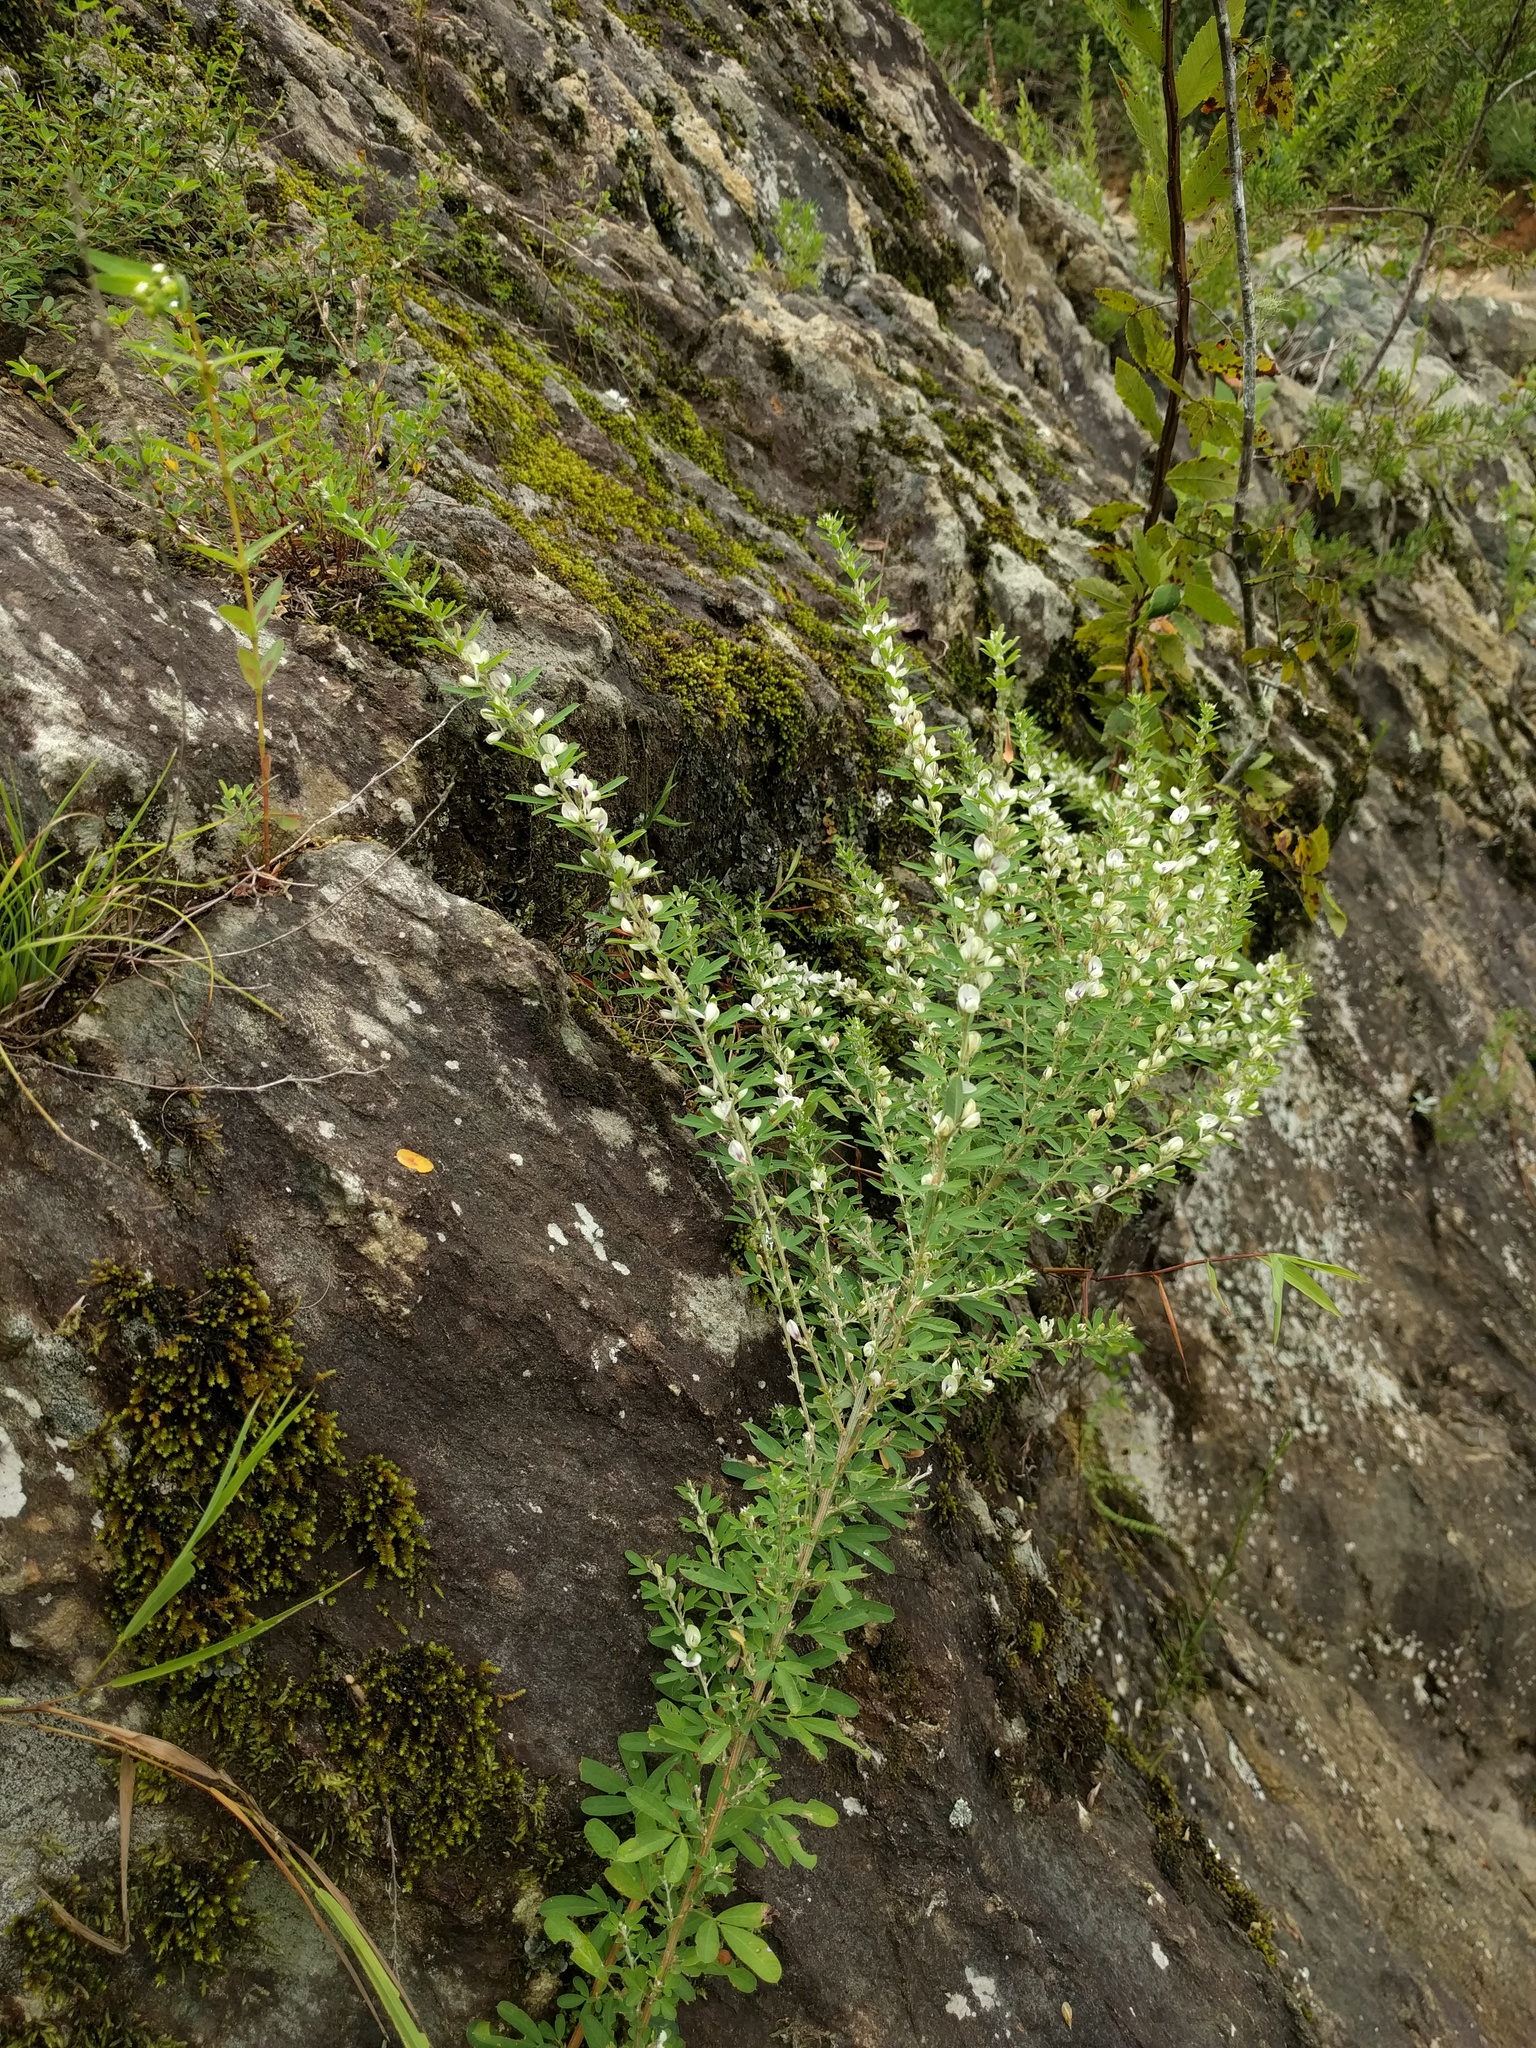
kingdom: Plantae
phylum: Tracheophyta
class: Magnoliopsida
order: Fabales
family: Fabaceae
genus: Lespedeza
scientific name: Lespedeza cuneata
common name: Chinese bush-clover
